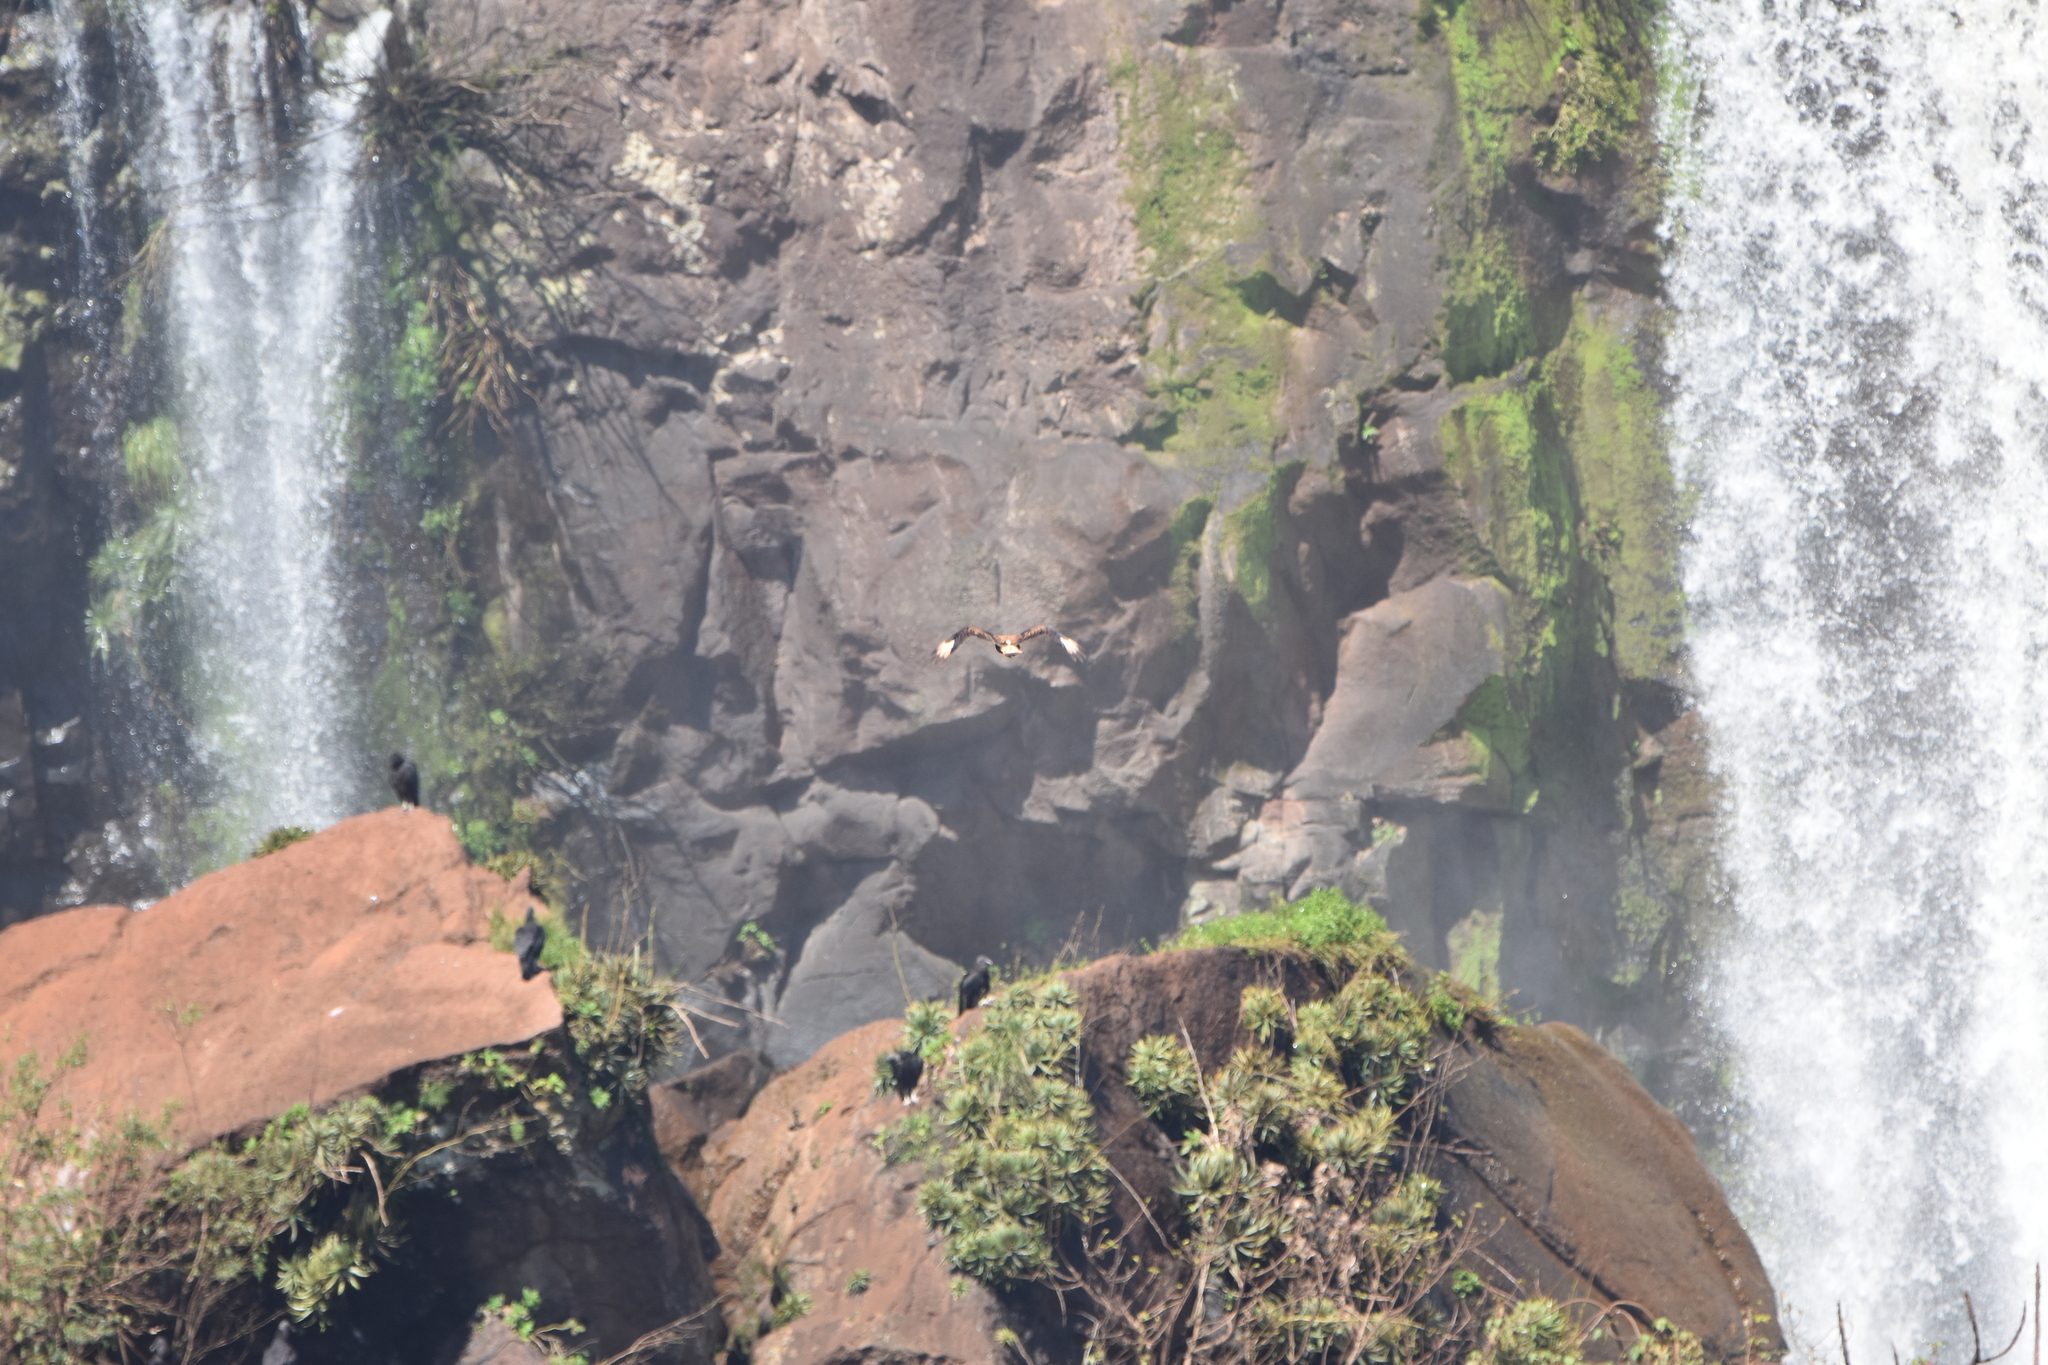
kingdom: Animalia
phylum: Chordata
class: Aves
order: Falconiformes
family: Falconidae
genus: Caracara
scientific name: Caracara plancus
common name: Southern caracara
